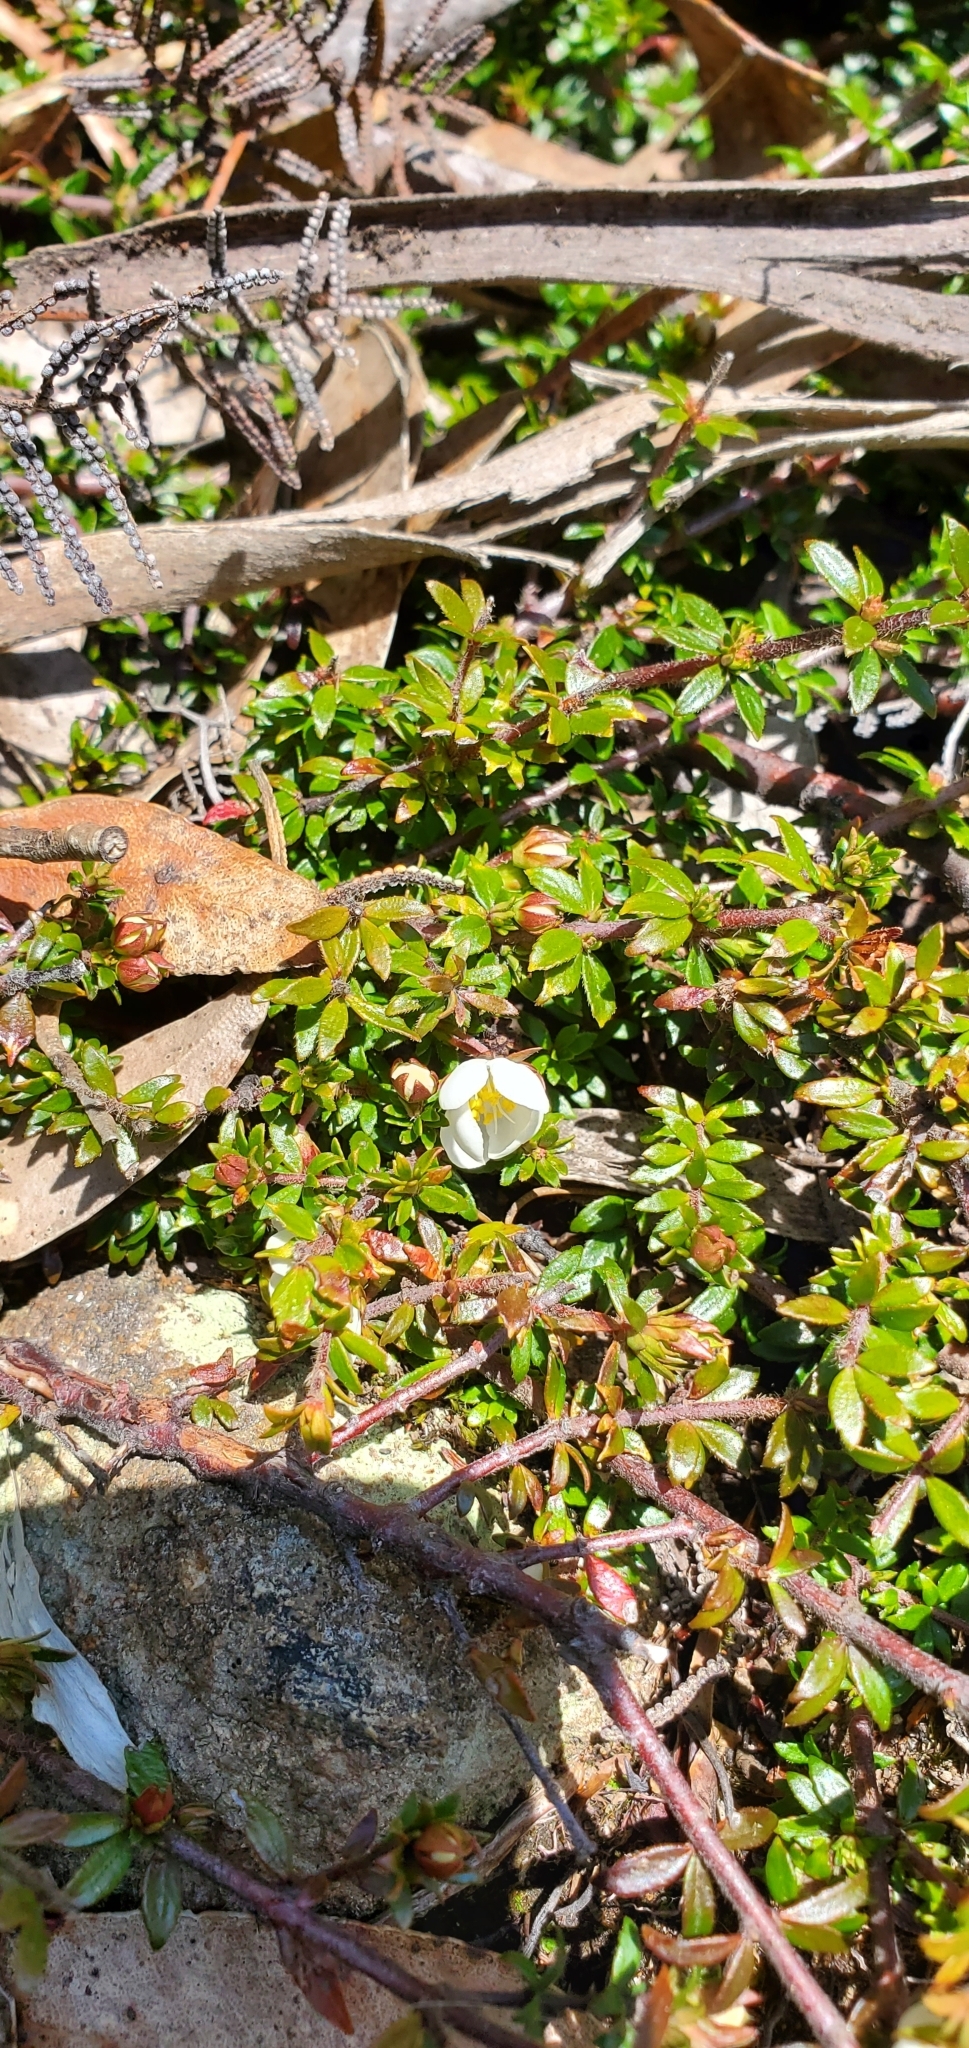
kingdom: Plantae
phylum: Tracheophyta
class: Magnoliopsida
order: Oxalidales
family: Cunoniaceae
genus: Bauera
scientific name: Bauera rubioides
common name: River-rose
